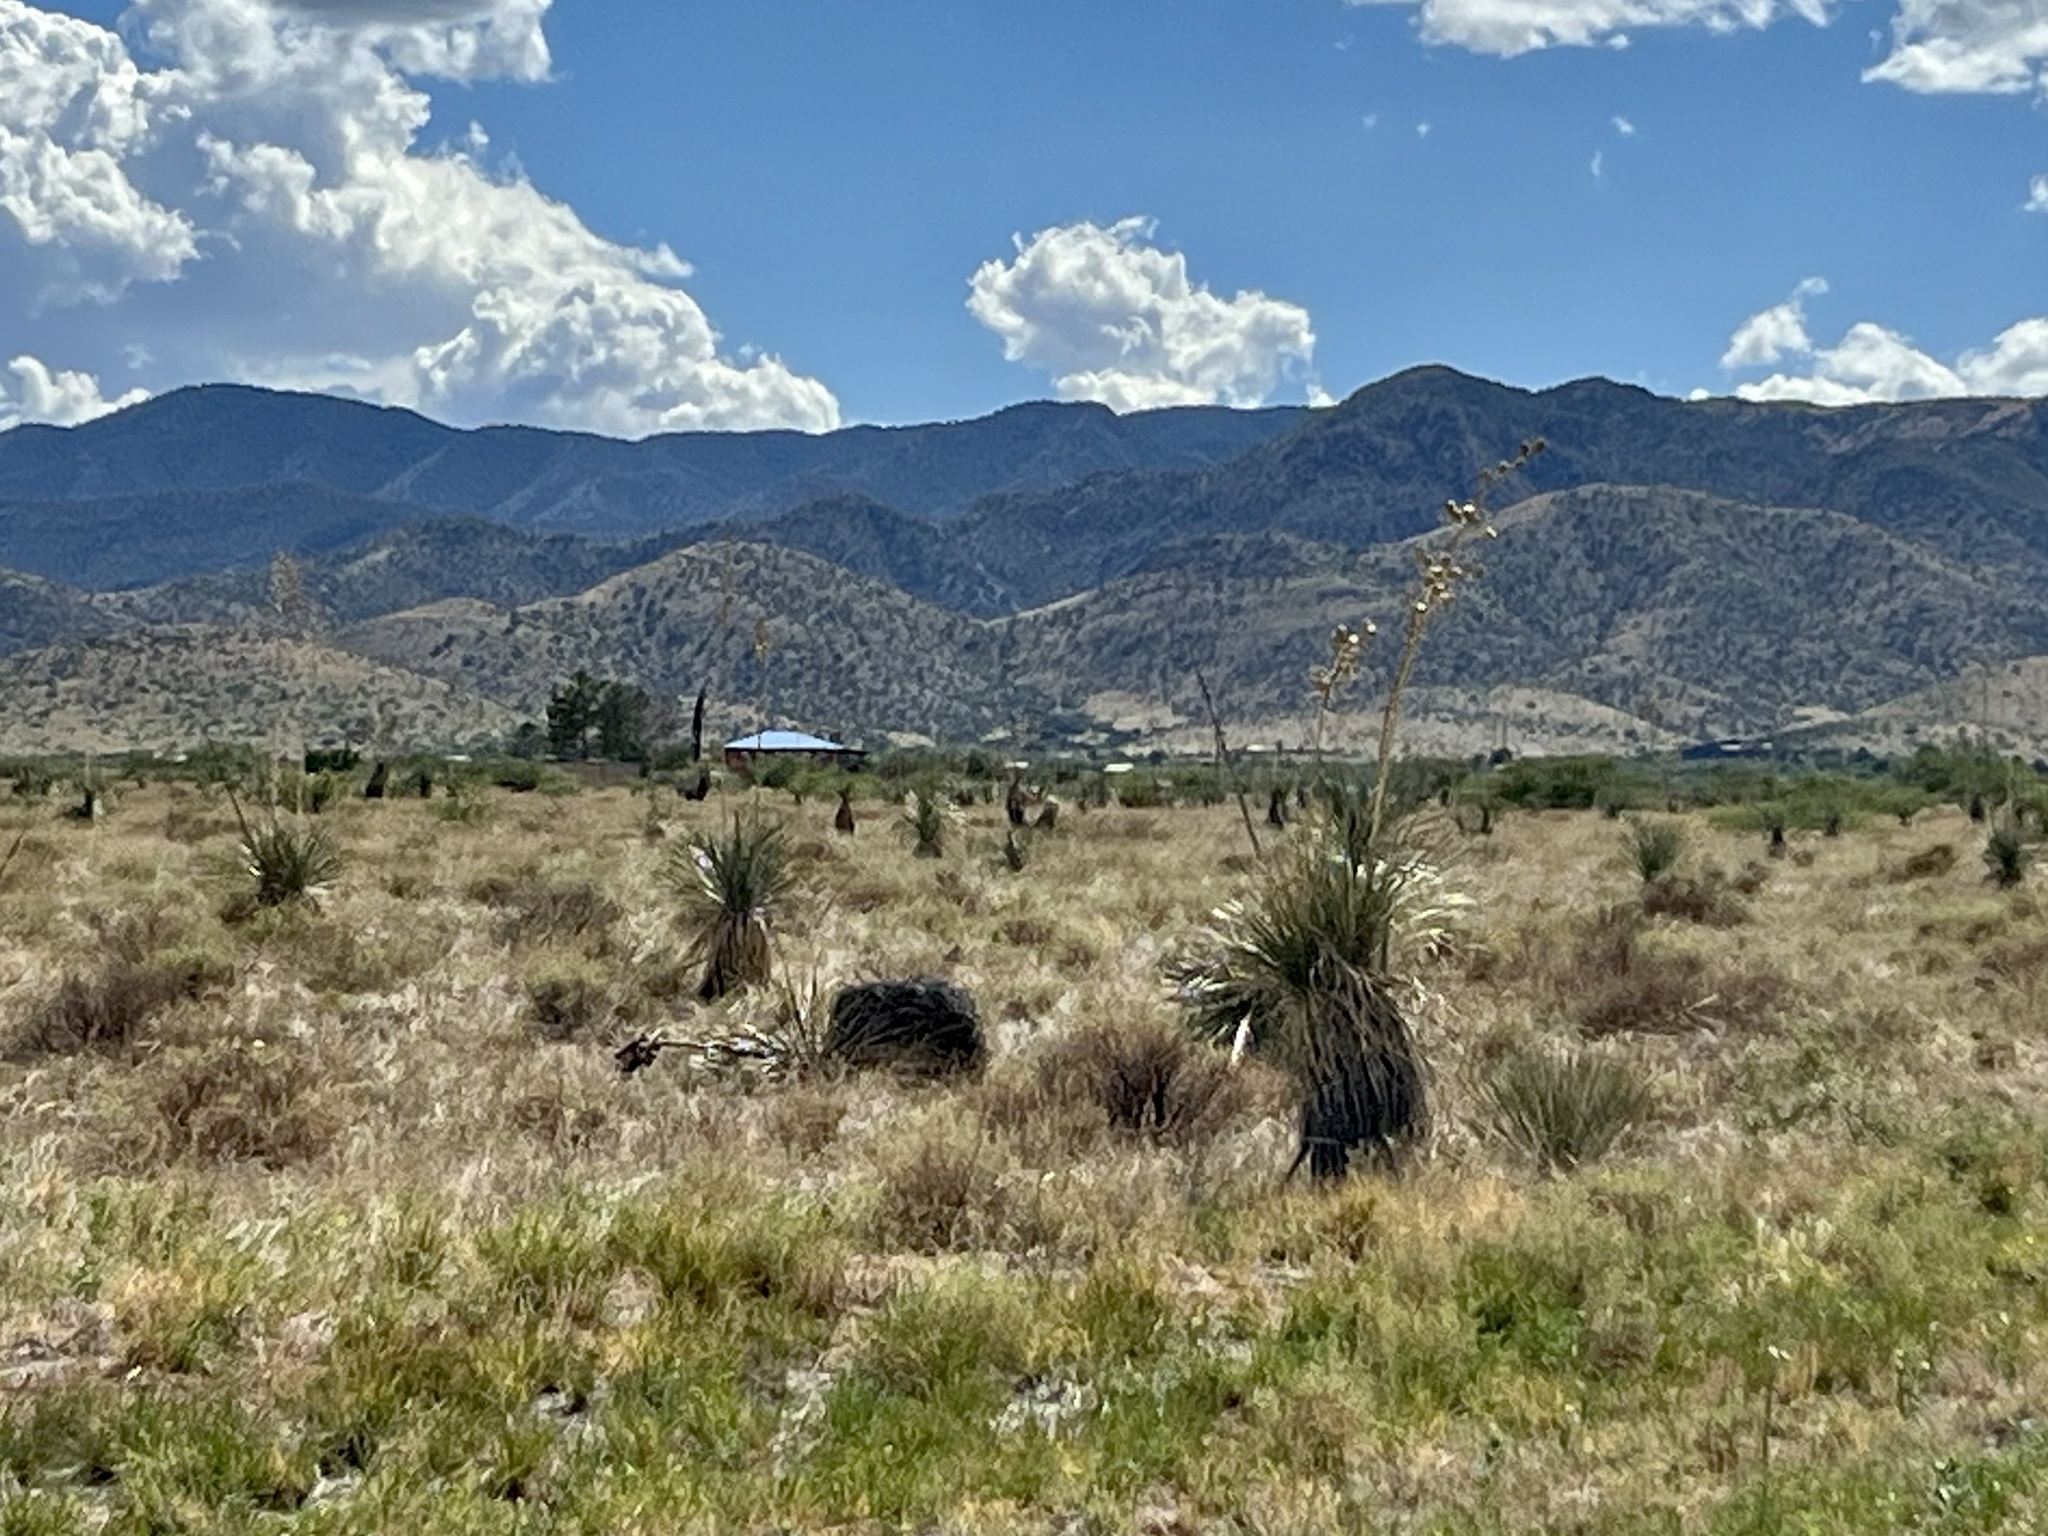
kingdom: Plantae
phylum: Tracheophyta
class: Liliopsida
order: Asparagales
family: Asparagaceae
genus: Yucca
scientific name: Yucca elata
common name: Palmella
